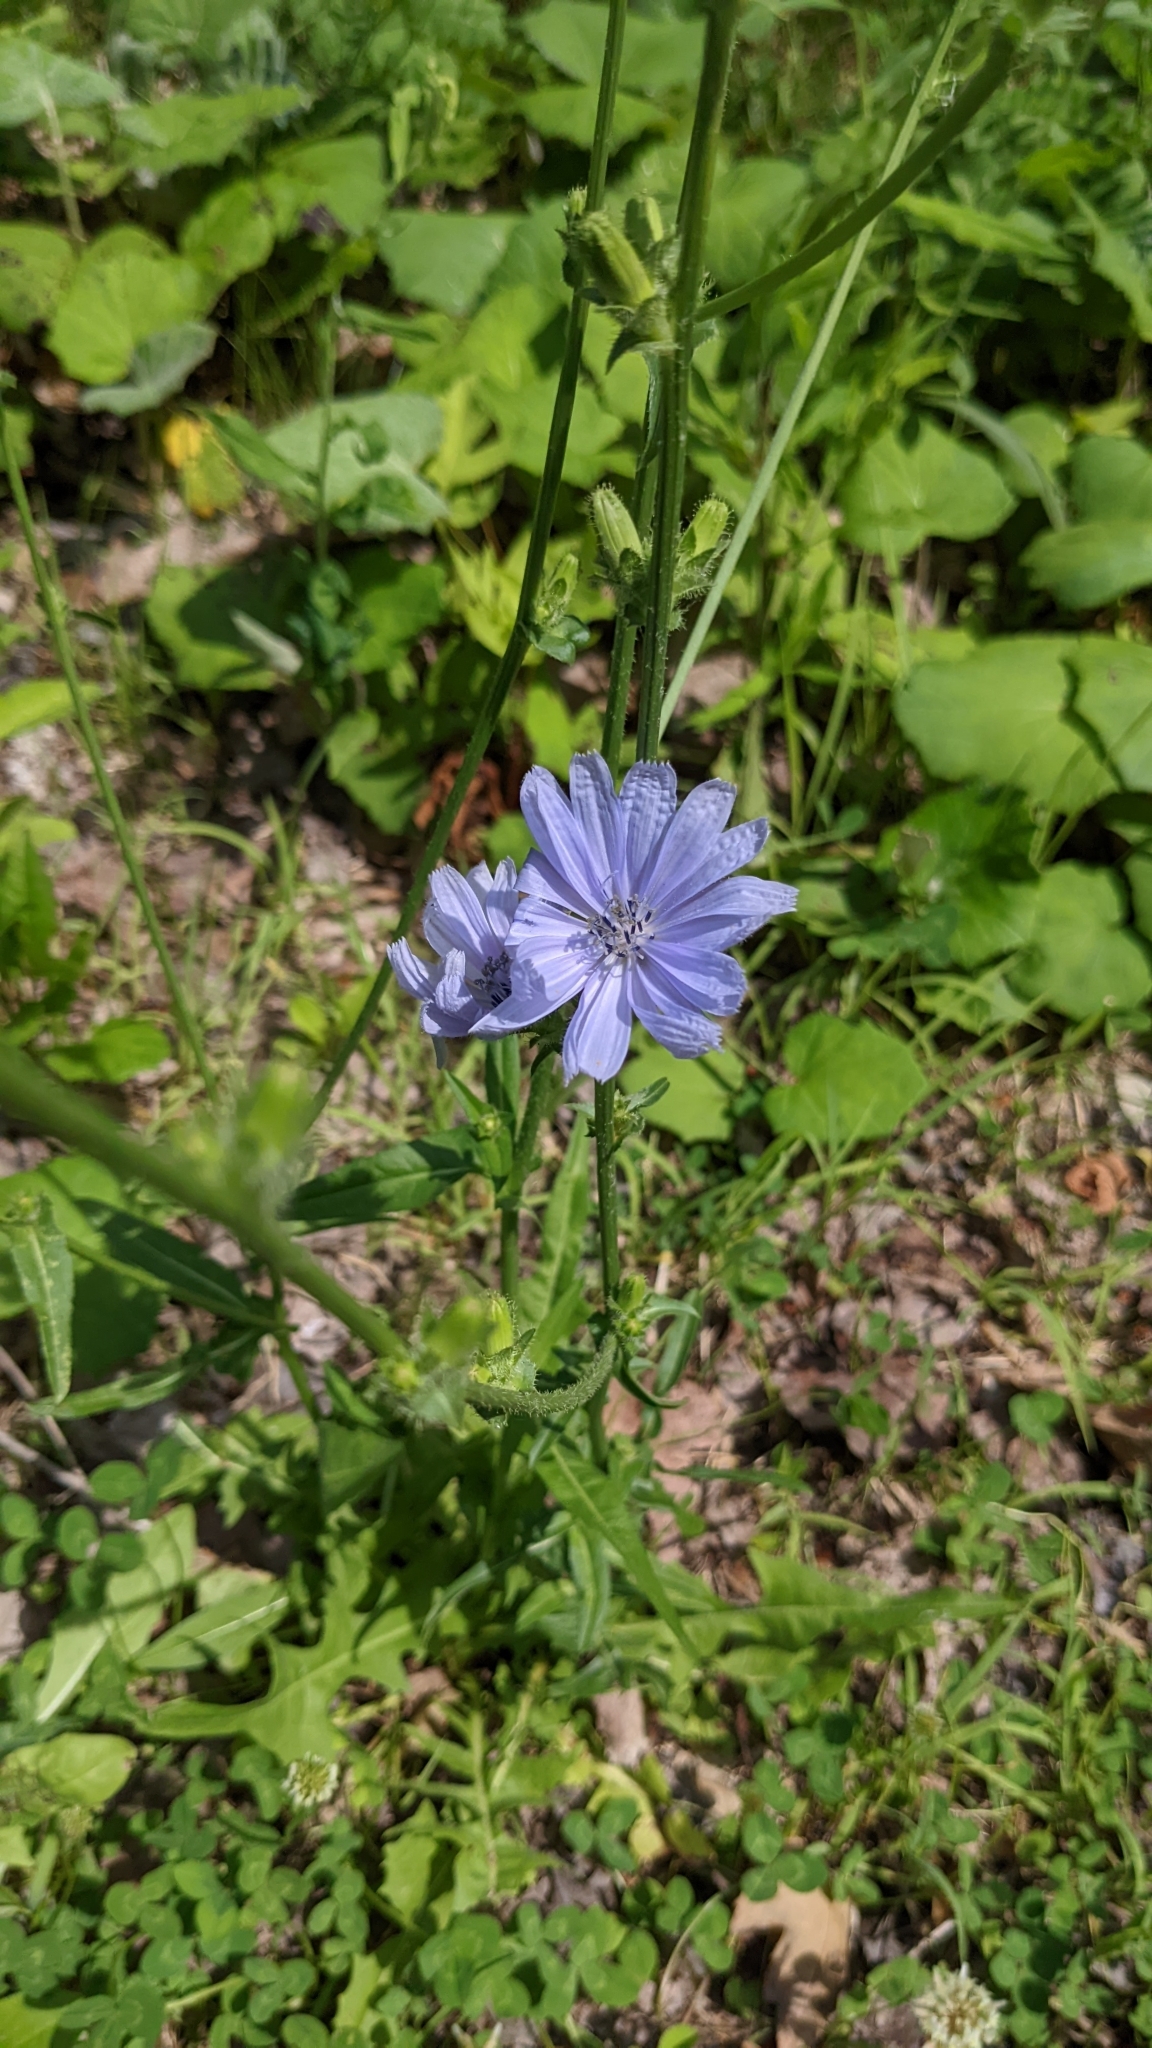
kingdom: Plantae
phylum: Tracheophyta
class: Magnoliopsida
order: Asterales
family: Asteraceae
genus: Cichorium
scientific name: Cichorium intybus
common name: Chicory
